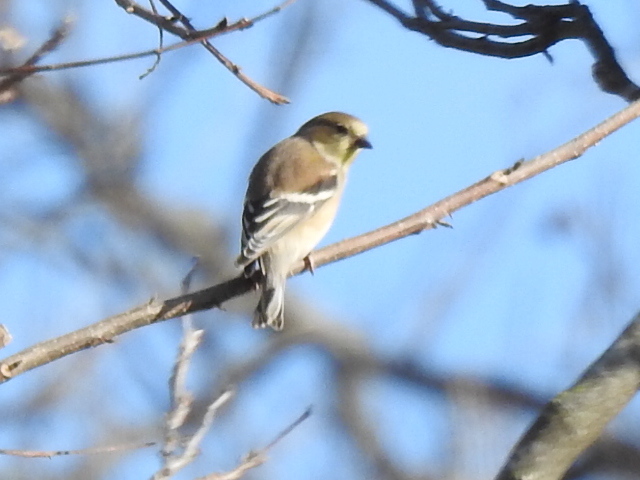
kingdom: Animalia
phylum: Chordata
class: Aves
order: Passeriformes
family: Fringillidae
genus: Spinus
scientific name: Spinus tristis
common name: American goldfinch
